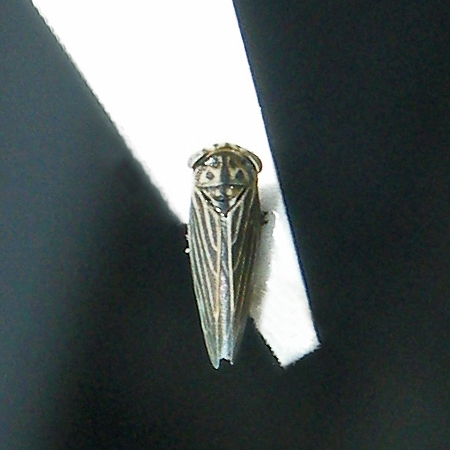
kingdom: Animalia
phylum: Arthropoda
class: Insecta
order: Hemiptera
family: Cicadellidae
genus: Agalliopsis
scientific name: Agalliopsis novella
